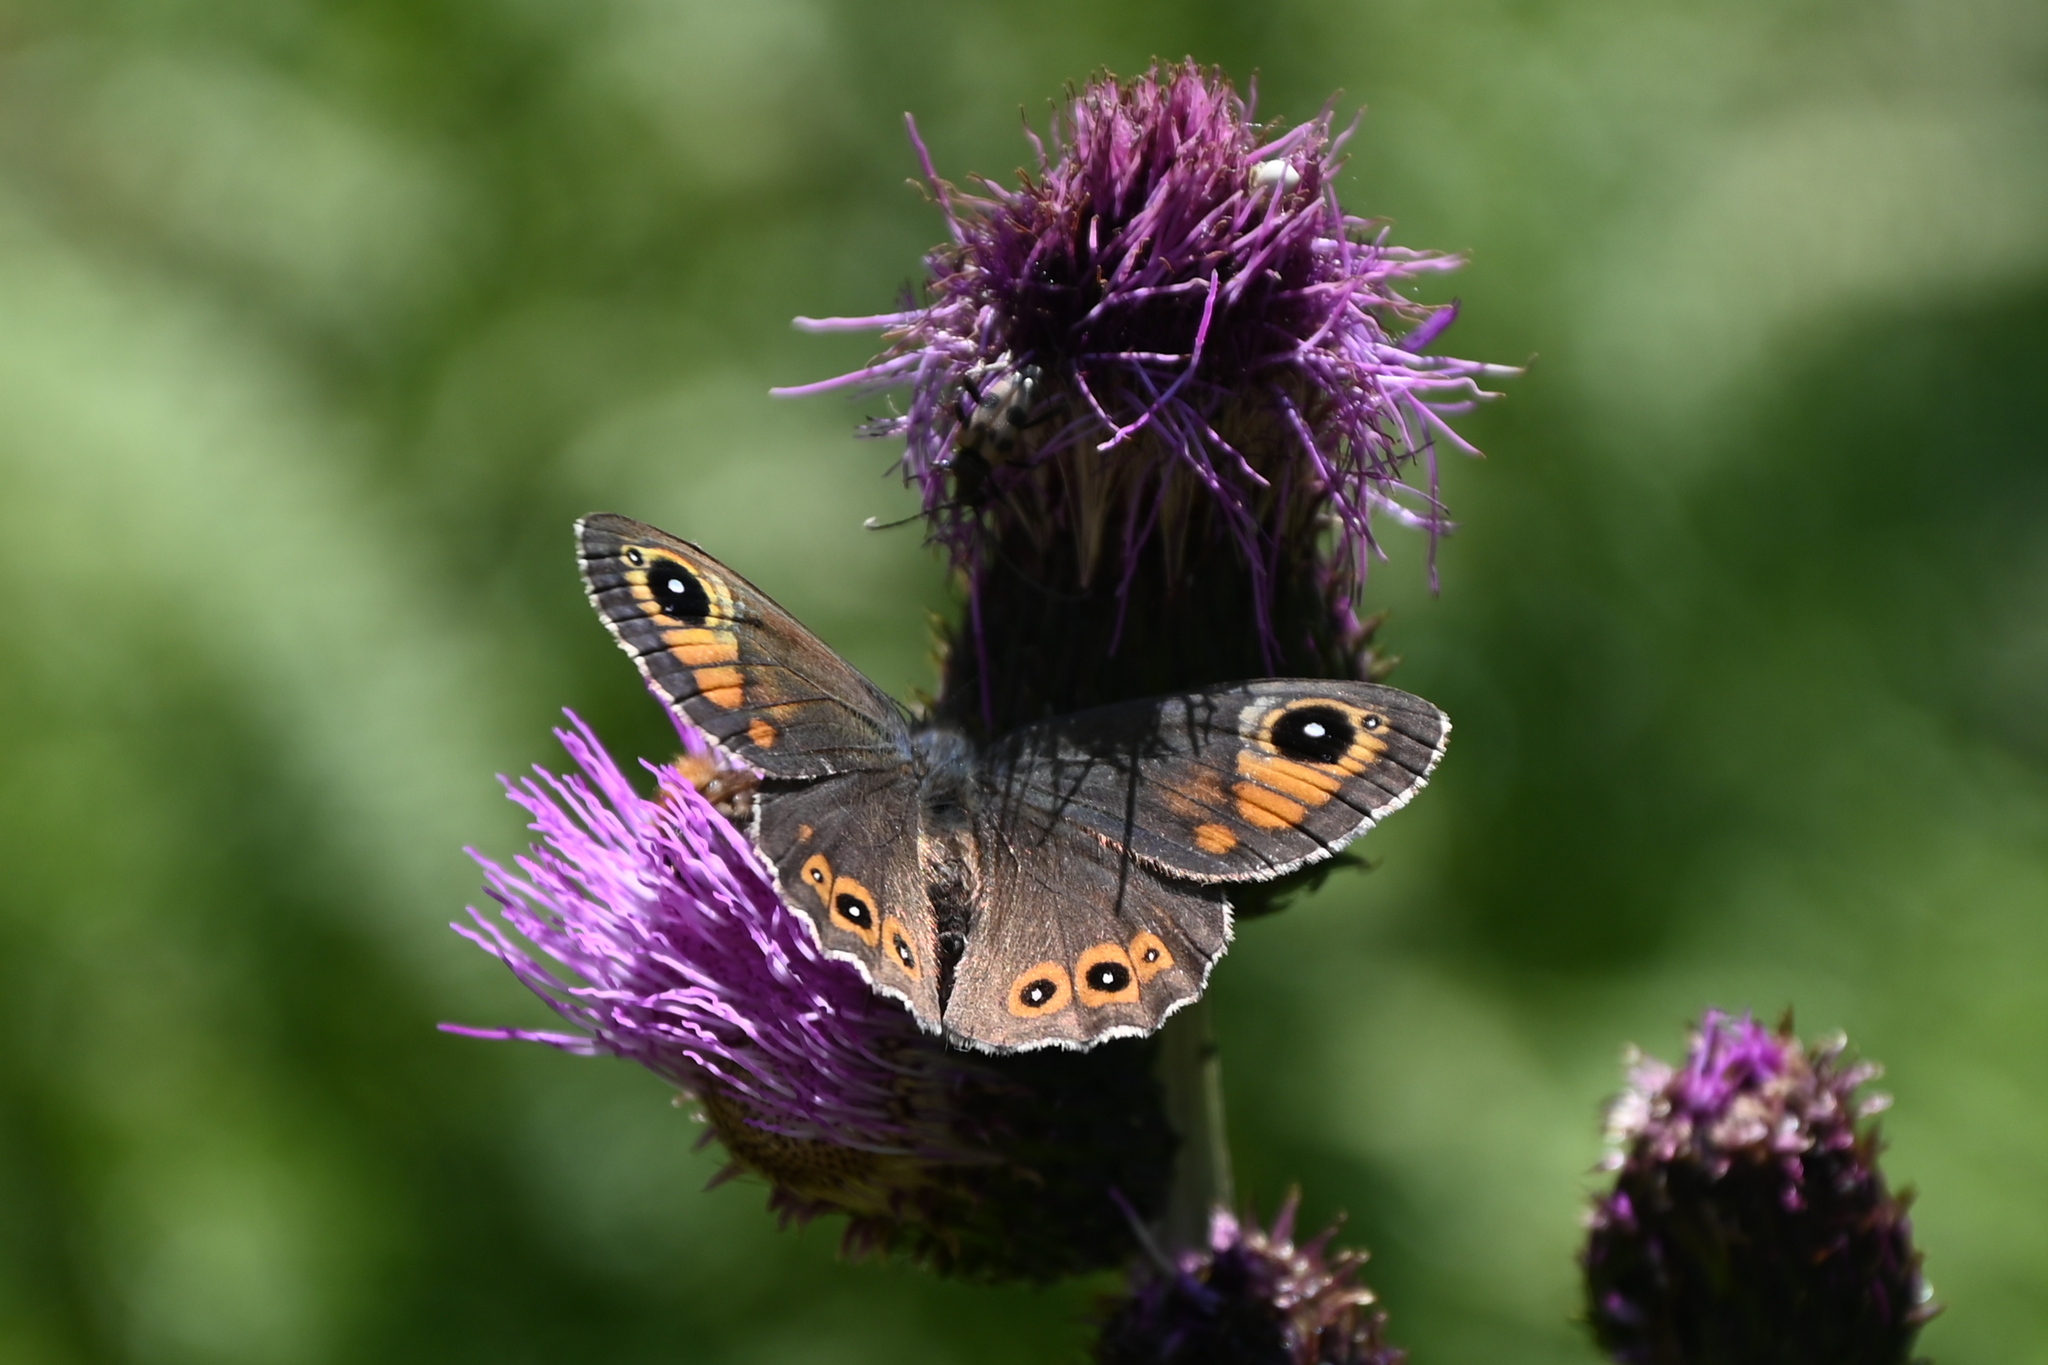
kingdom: Animalia
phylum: Arthropoda
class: Insecta
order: Lepidoptera
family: Nymphalidae
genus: Pararge
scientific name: Pararge Lasiommata maera
